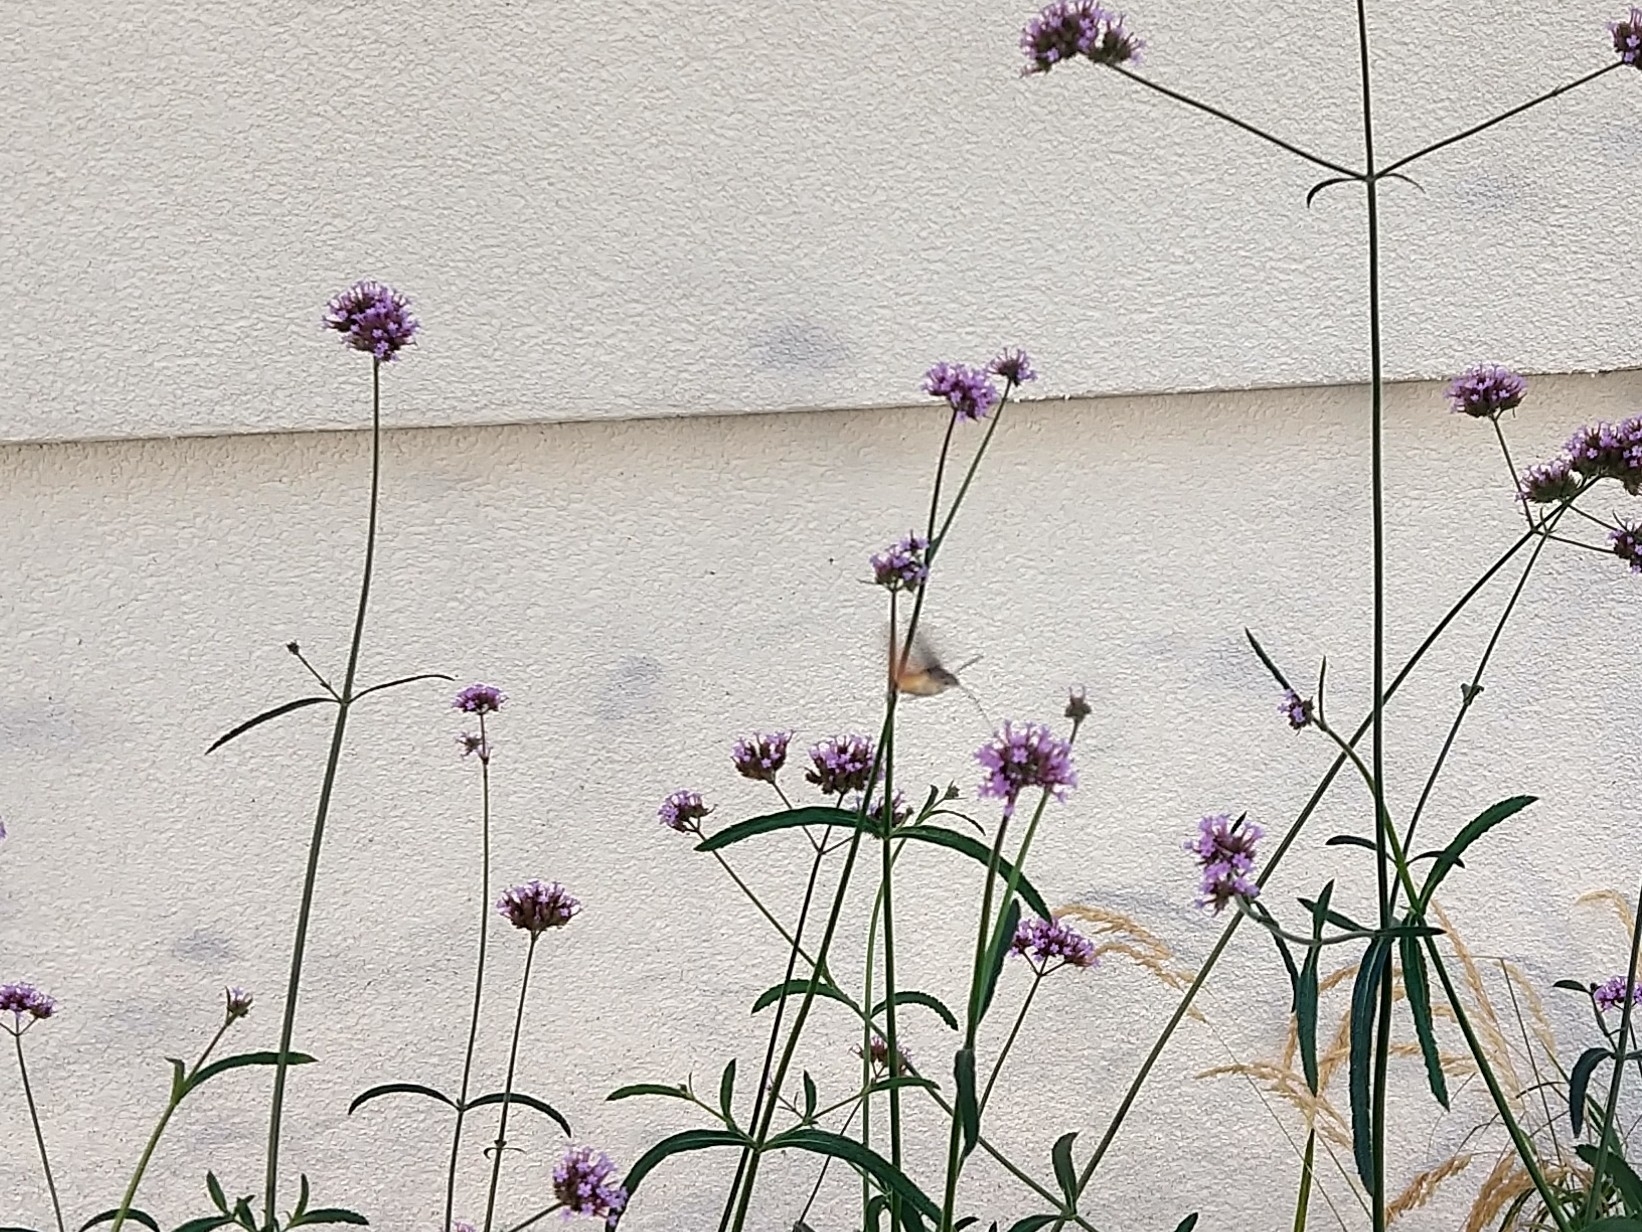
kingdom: Animalia
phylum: Arthropoda
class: Insecta
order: Lepidoptera
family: Sphingidae
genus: Macroglossum
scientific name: Macroglossum stellatarum
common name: Humming-bird hawk-moth
